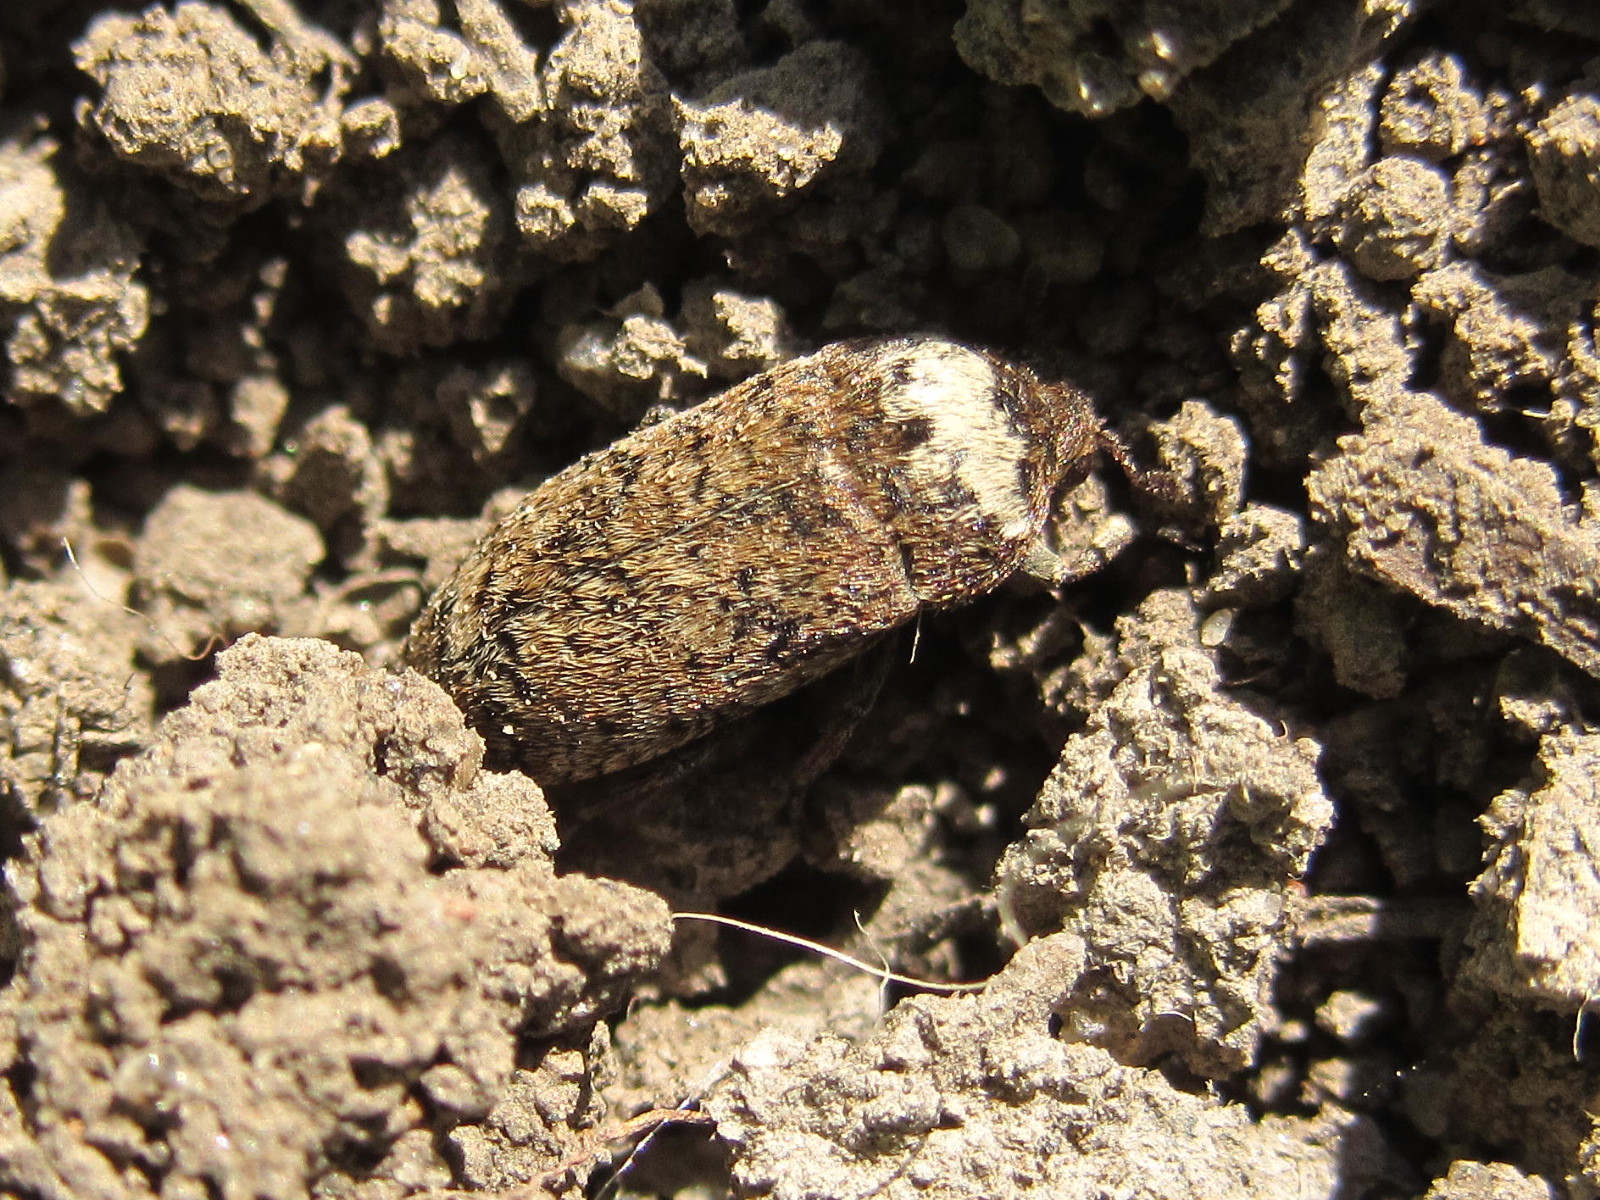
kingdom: Animalia
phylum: Arthropoda
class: Insecta
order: Coleoptera
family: Dermestidae
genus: Dermestes
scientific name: Dermestes coronatus
